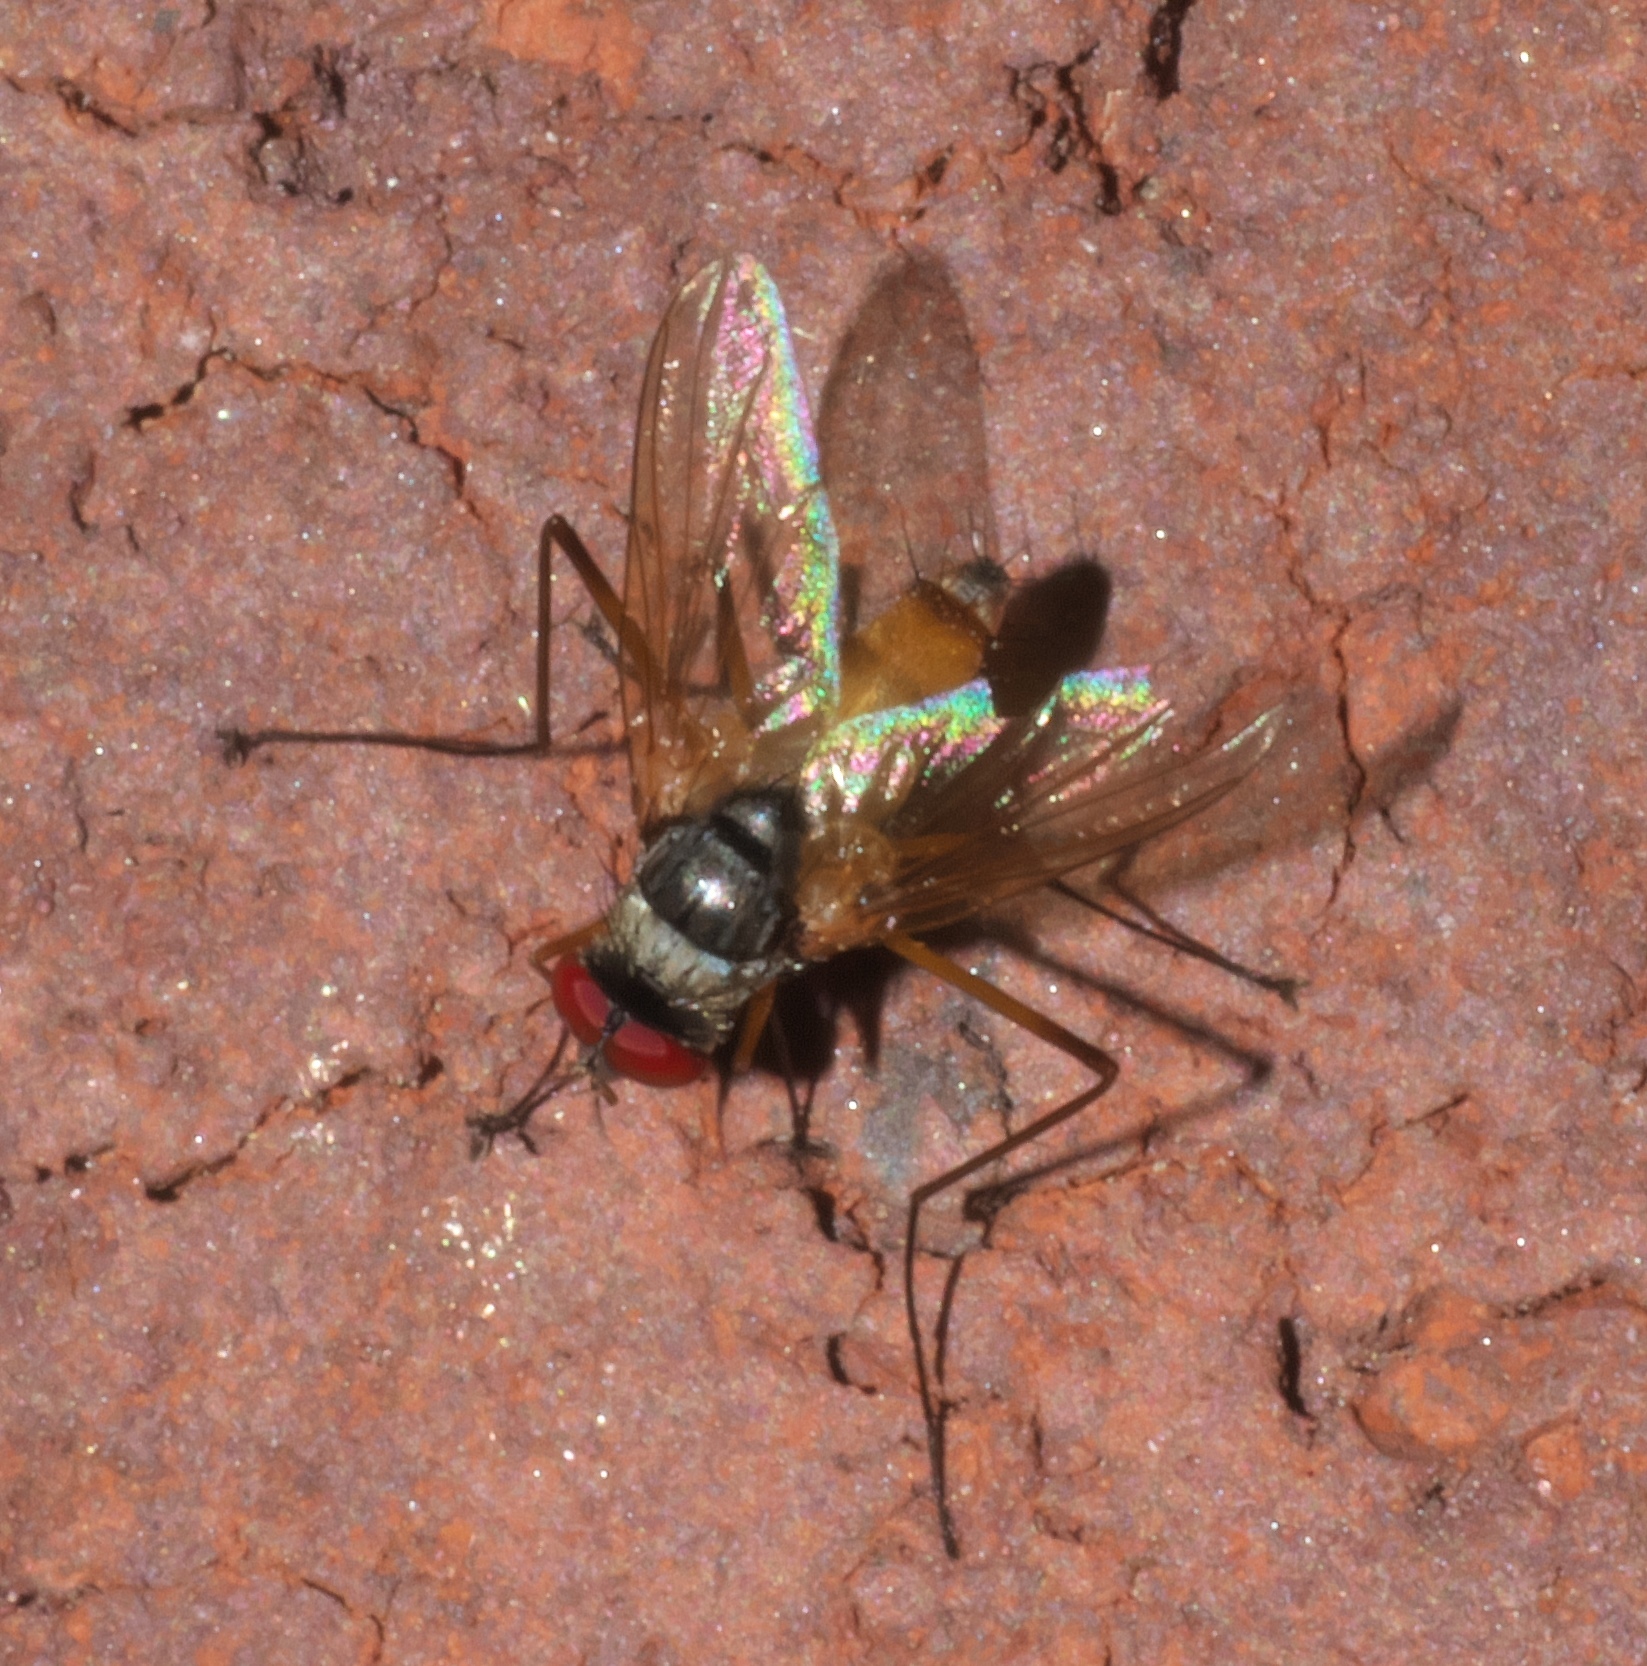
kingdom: Animalia
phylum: Arthropoda
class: Insecta
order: Diptera
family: Tachinidae
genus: Cholomyia
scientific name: Cholomyia inaequipes
